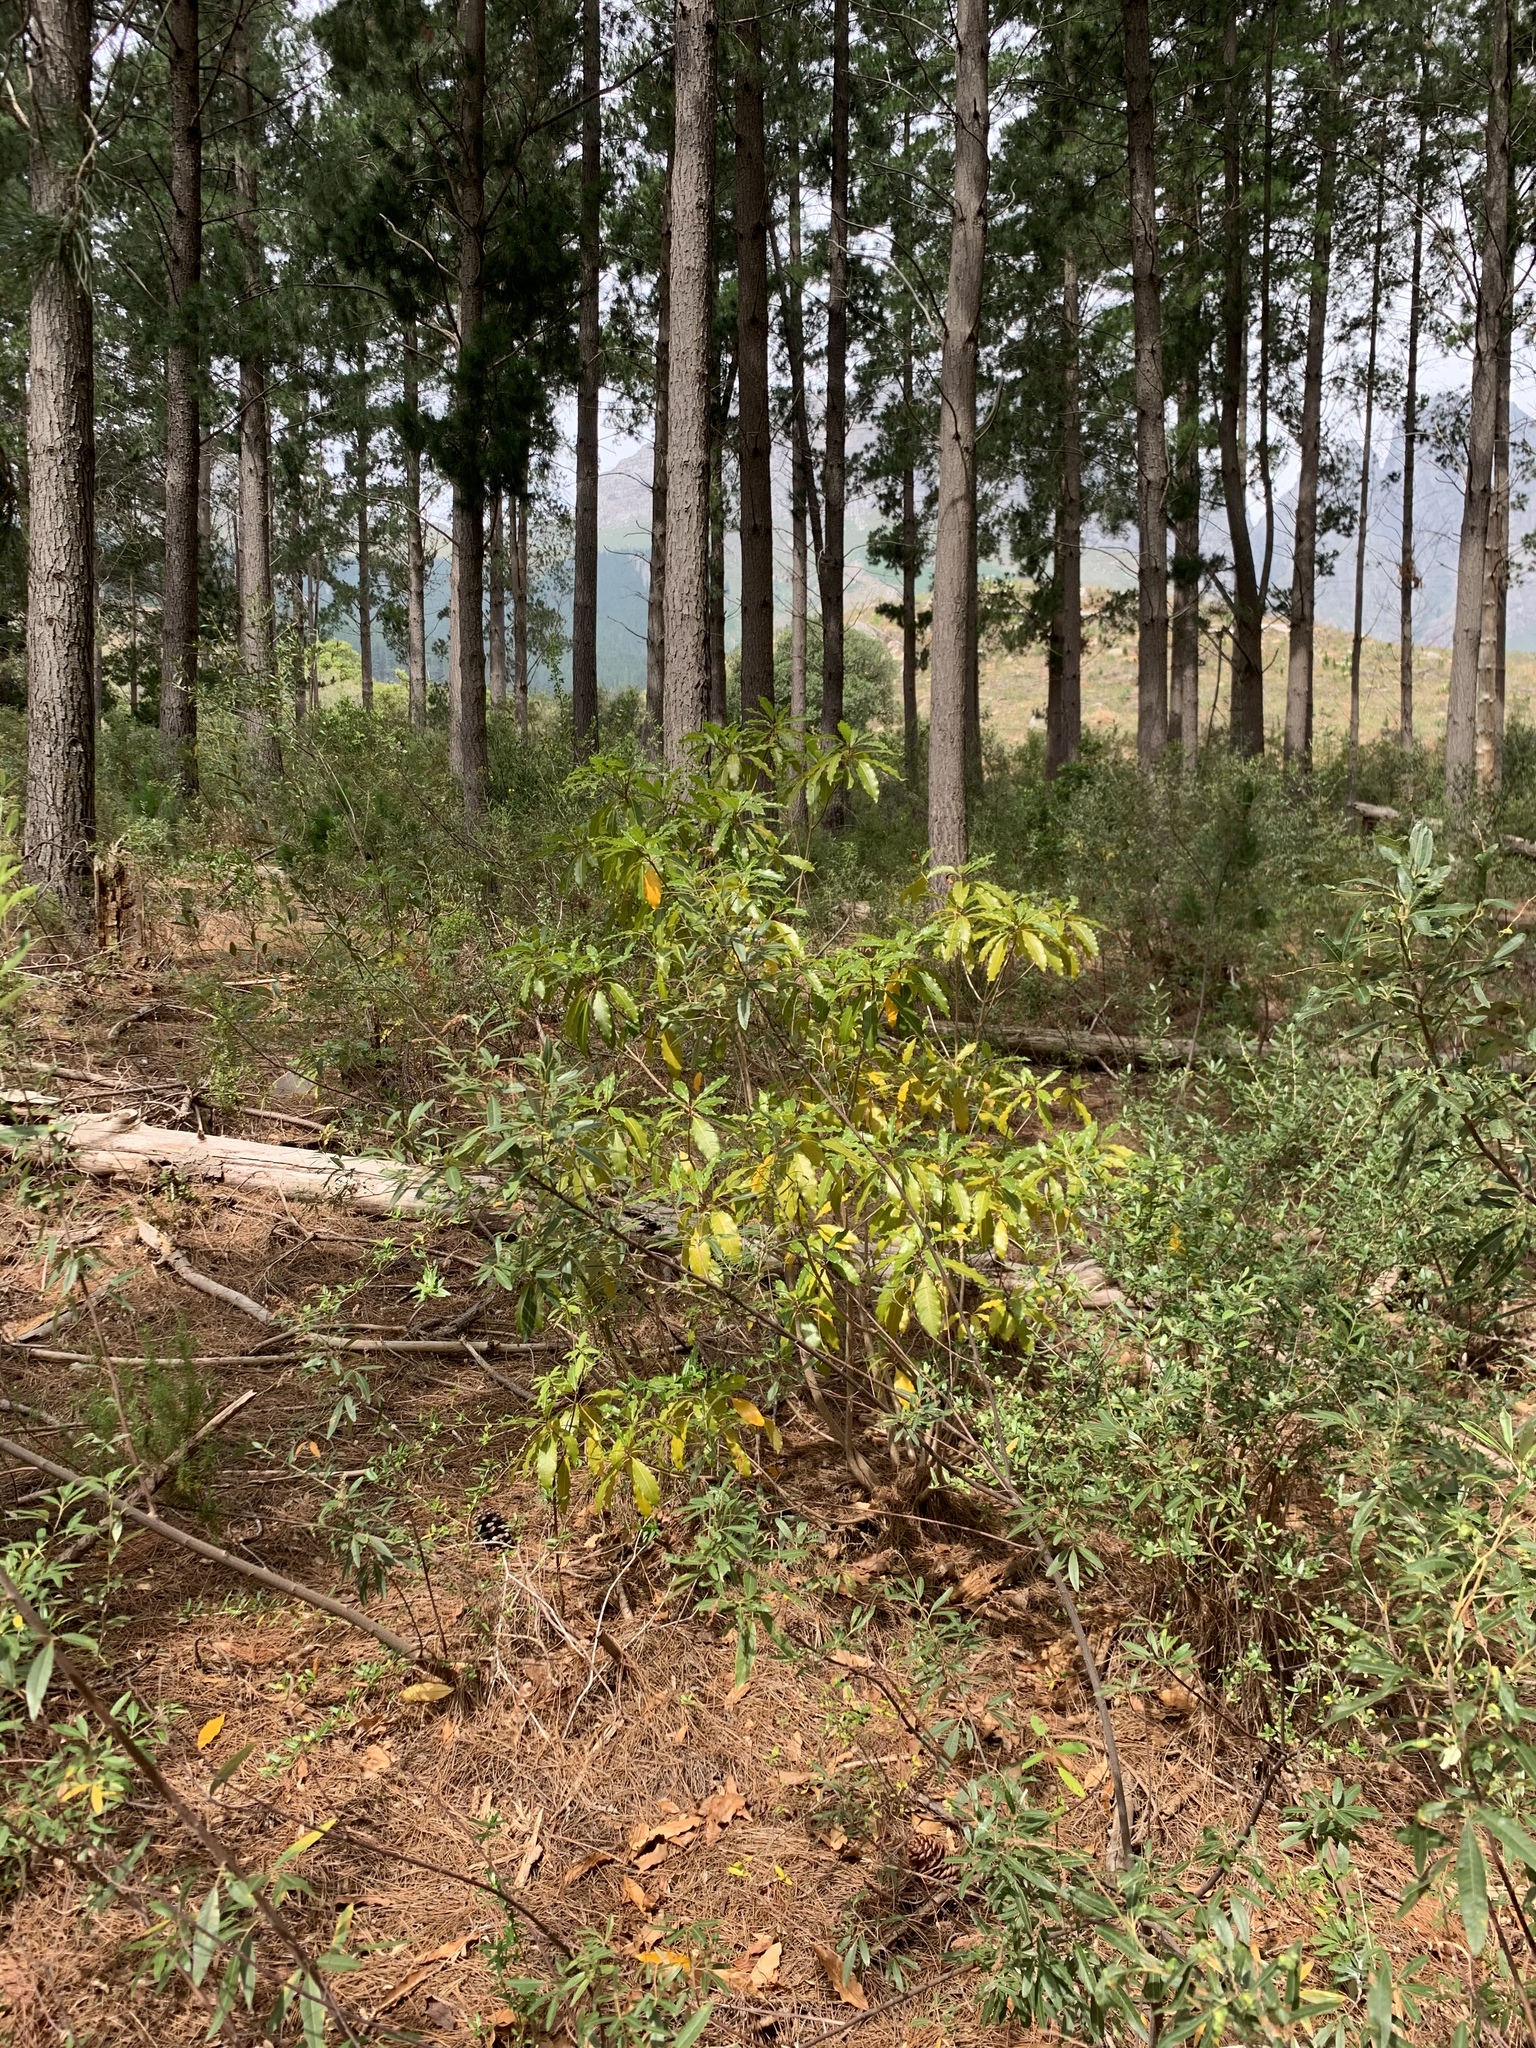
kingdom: Plantae
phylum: Tracheophyta
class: Magnoliopsida
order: Apiales
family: Pittosporaceae
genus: Pittosporum
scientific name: Pittosporum undulatum
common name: Australian cheesewood
